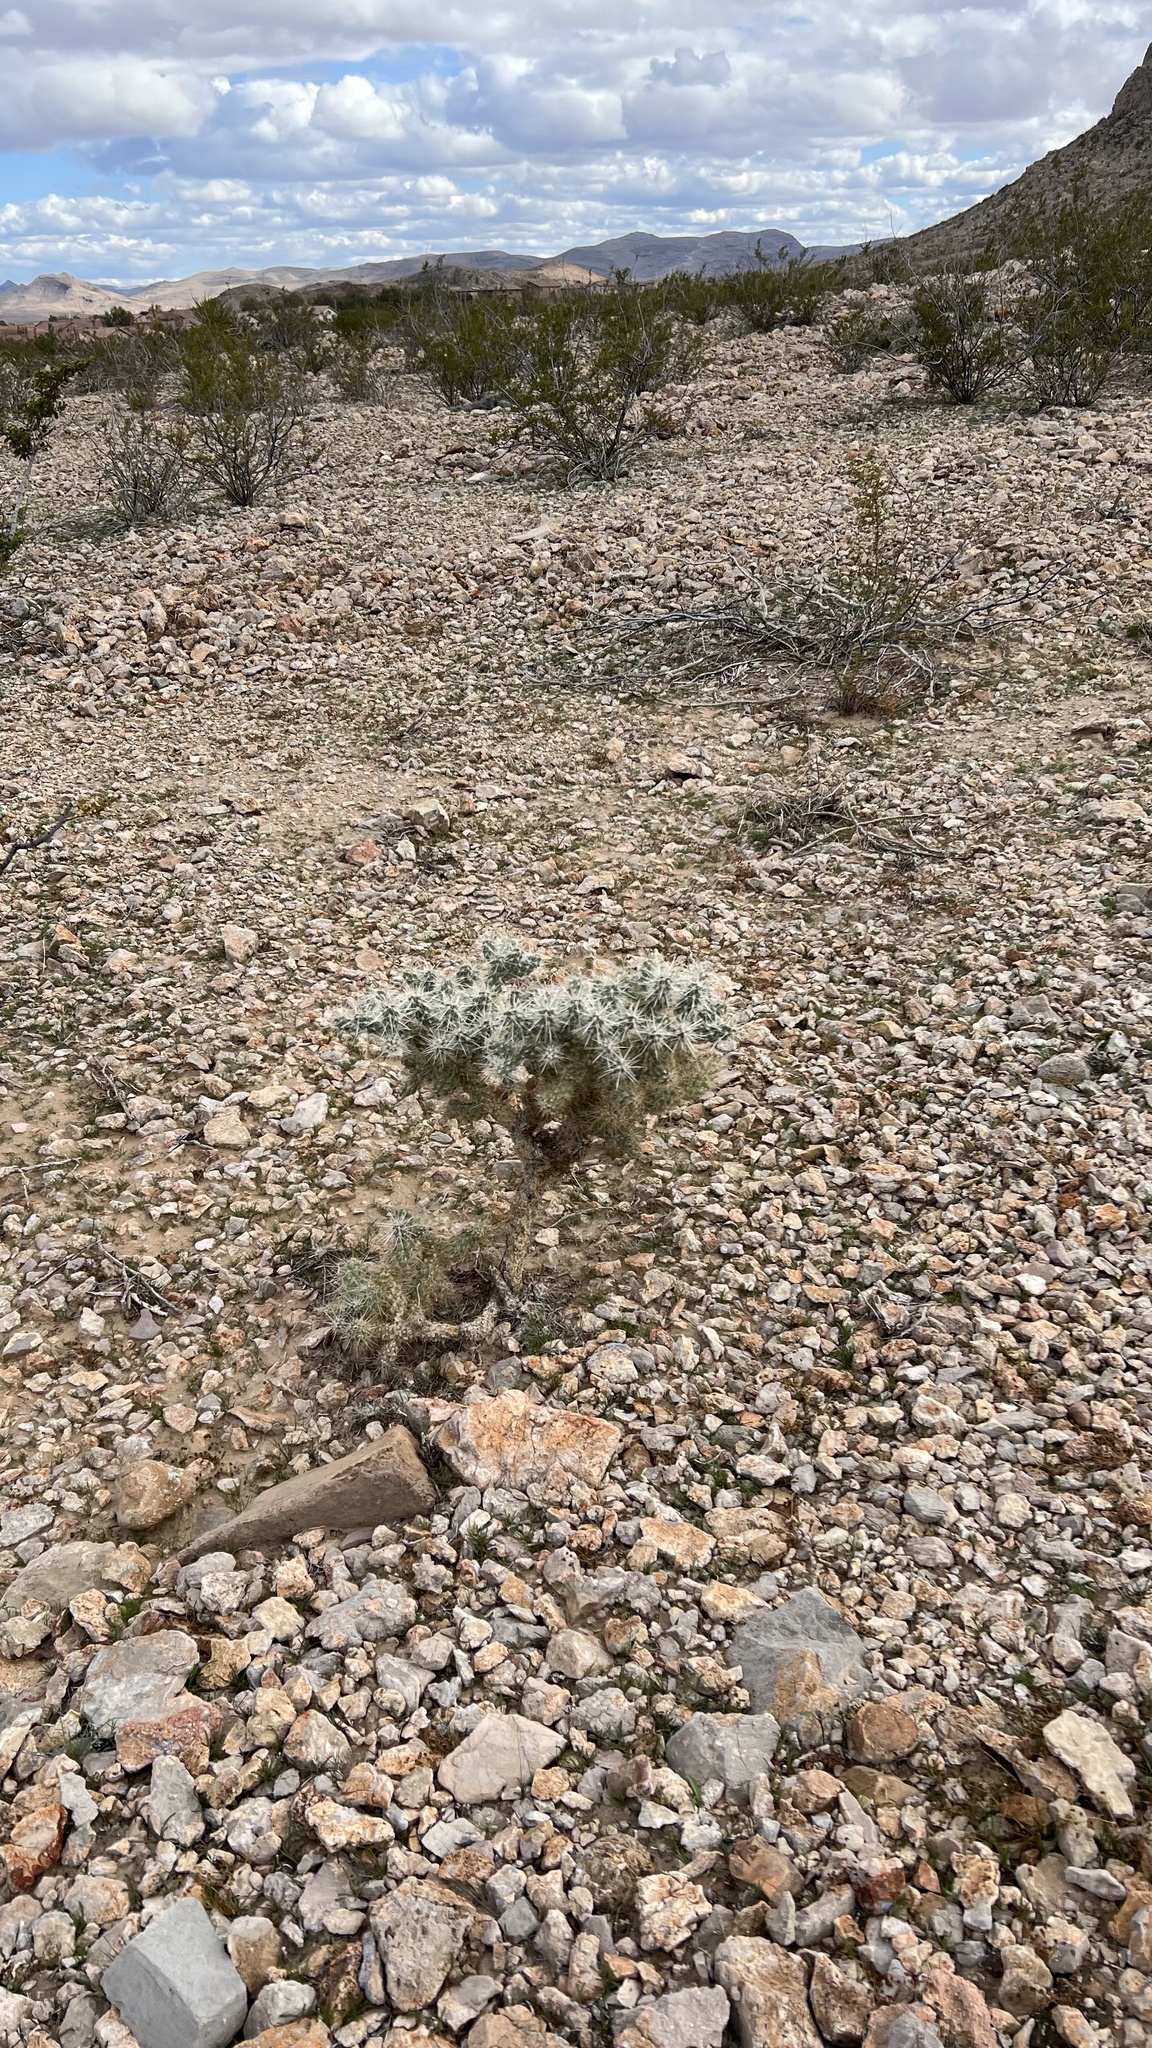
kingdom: Plantae
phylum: Tracheophyta
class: Magnoliopsida
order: Caryophyllales
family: Cactaceae
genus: Cylindropuntia
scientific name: Cylindropuntia echinocarpa
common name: Ground cholla
